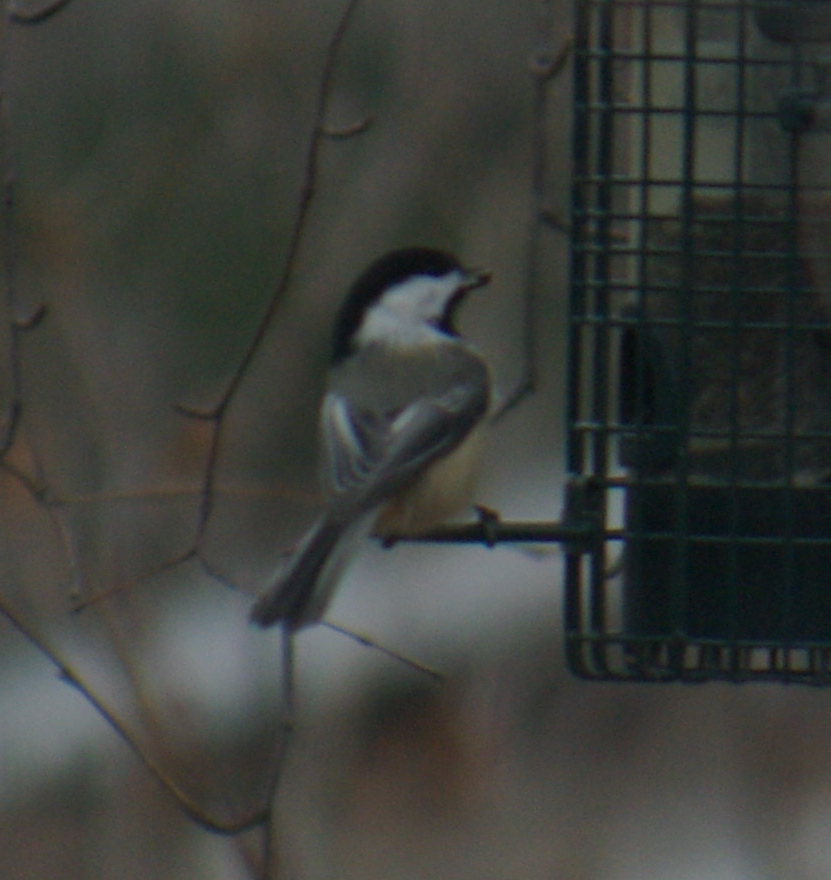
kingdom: Animalia
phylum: Chordata
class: Aves
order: Passeriformes
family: Paridae
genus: Poecile
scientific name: Poecile atricapillus
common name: Black-capped chickadee
